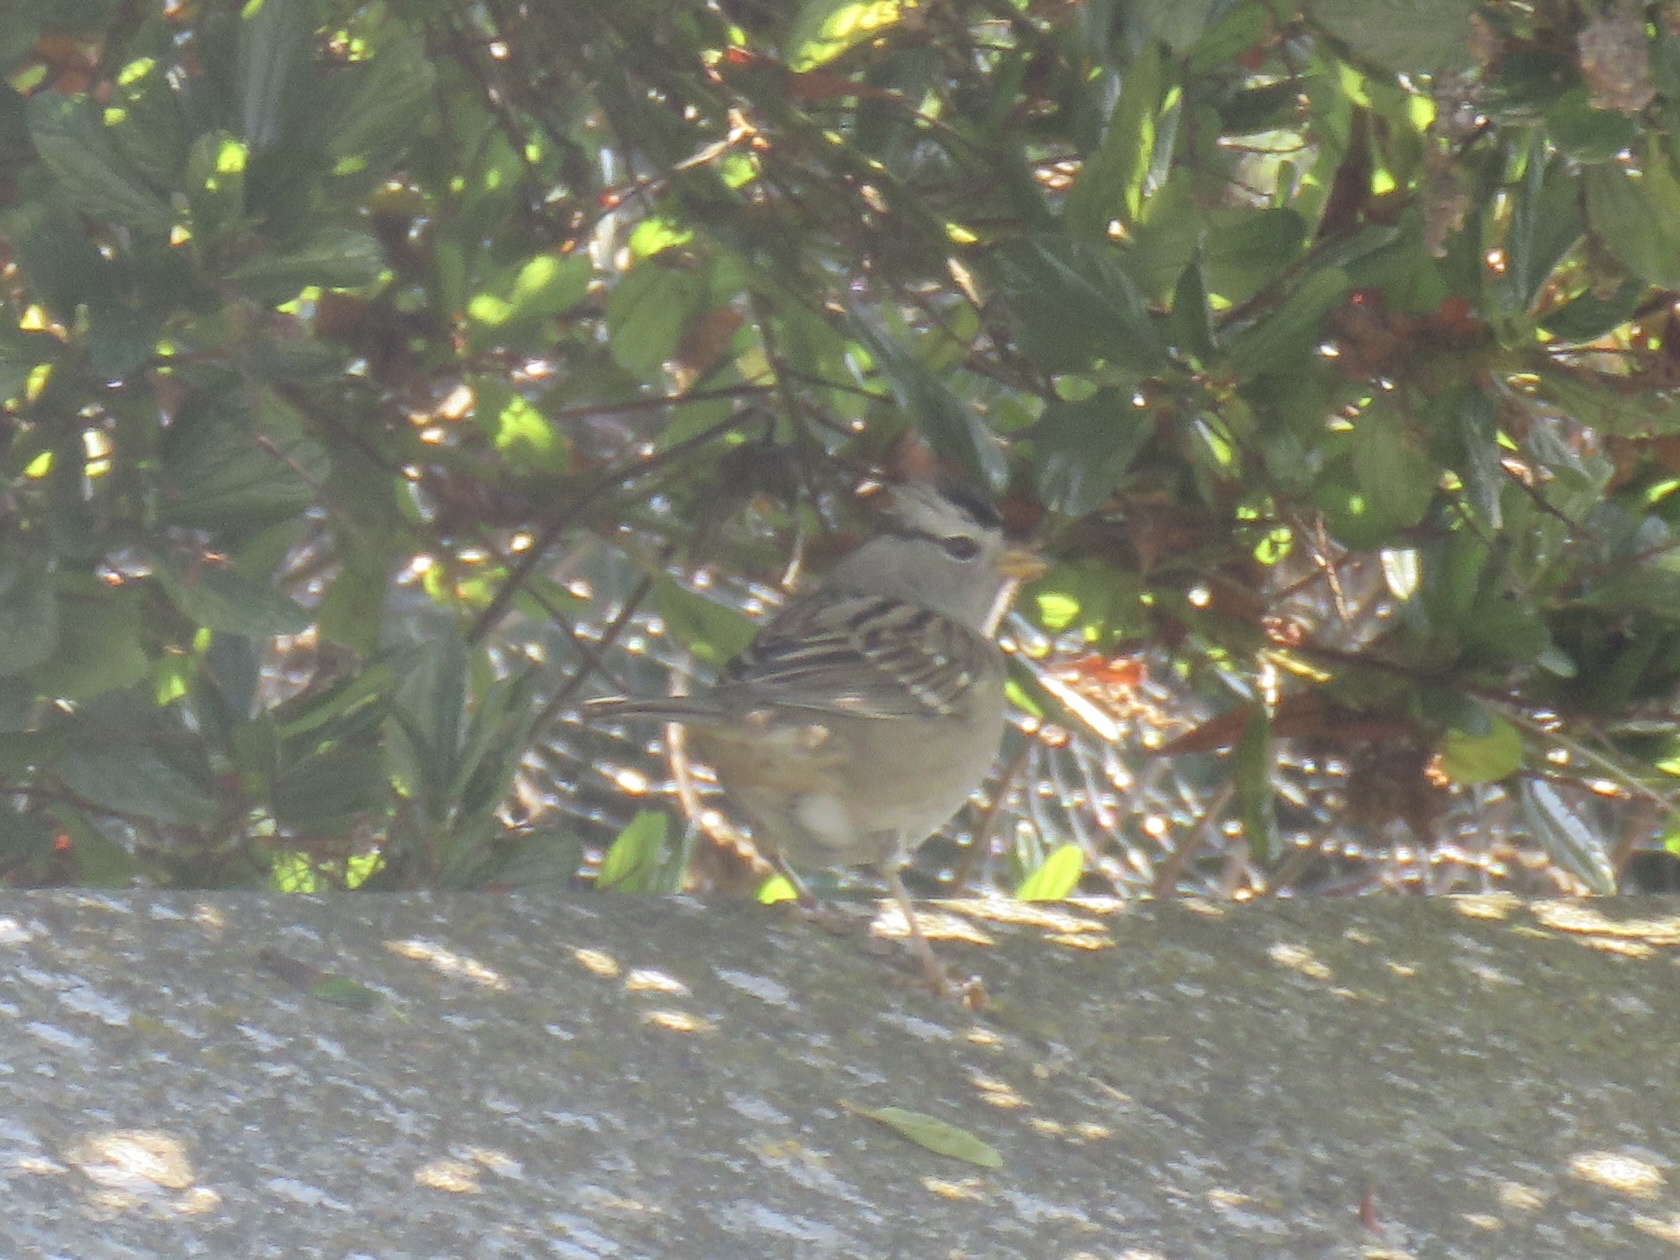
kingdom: Animalia
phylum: Chordata
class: Aves
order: Passeriformes
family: Passerellidae
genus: Zonotrichia
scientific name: Zonotrichia leucophrys
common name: White-crowned sparrow
